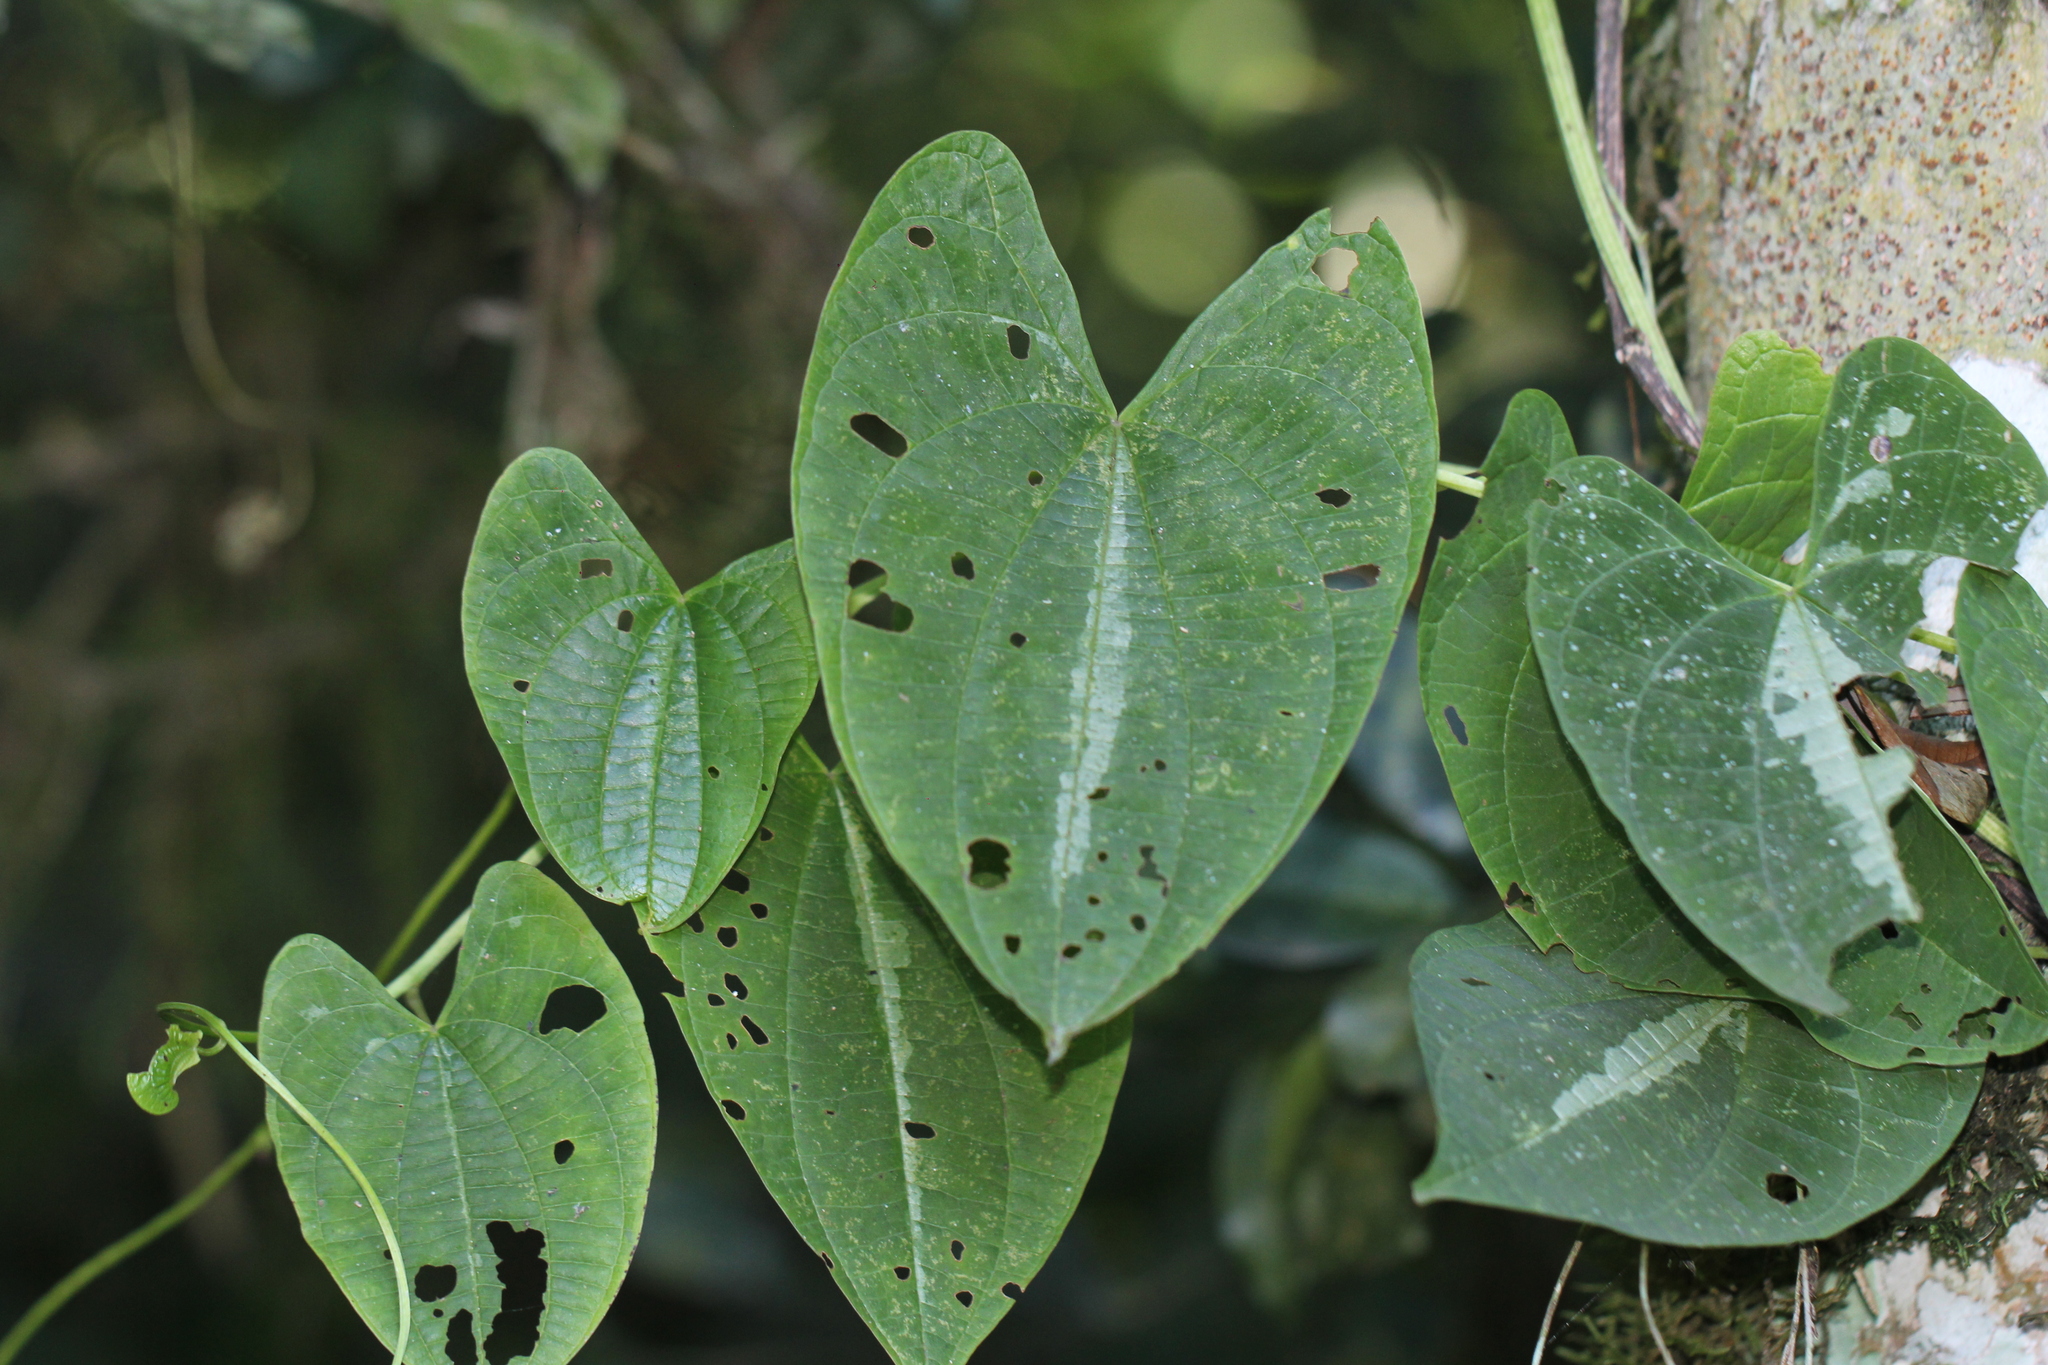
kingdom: Plantae
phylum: Tracheophyta
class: Liliopsida
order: Dioscoreales
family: Dioscoreaceae
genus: Dioscorea
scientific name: Dioscorea dodecaneura
